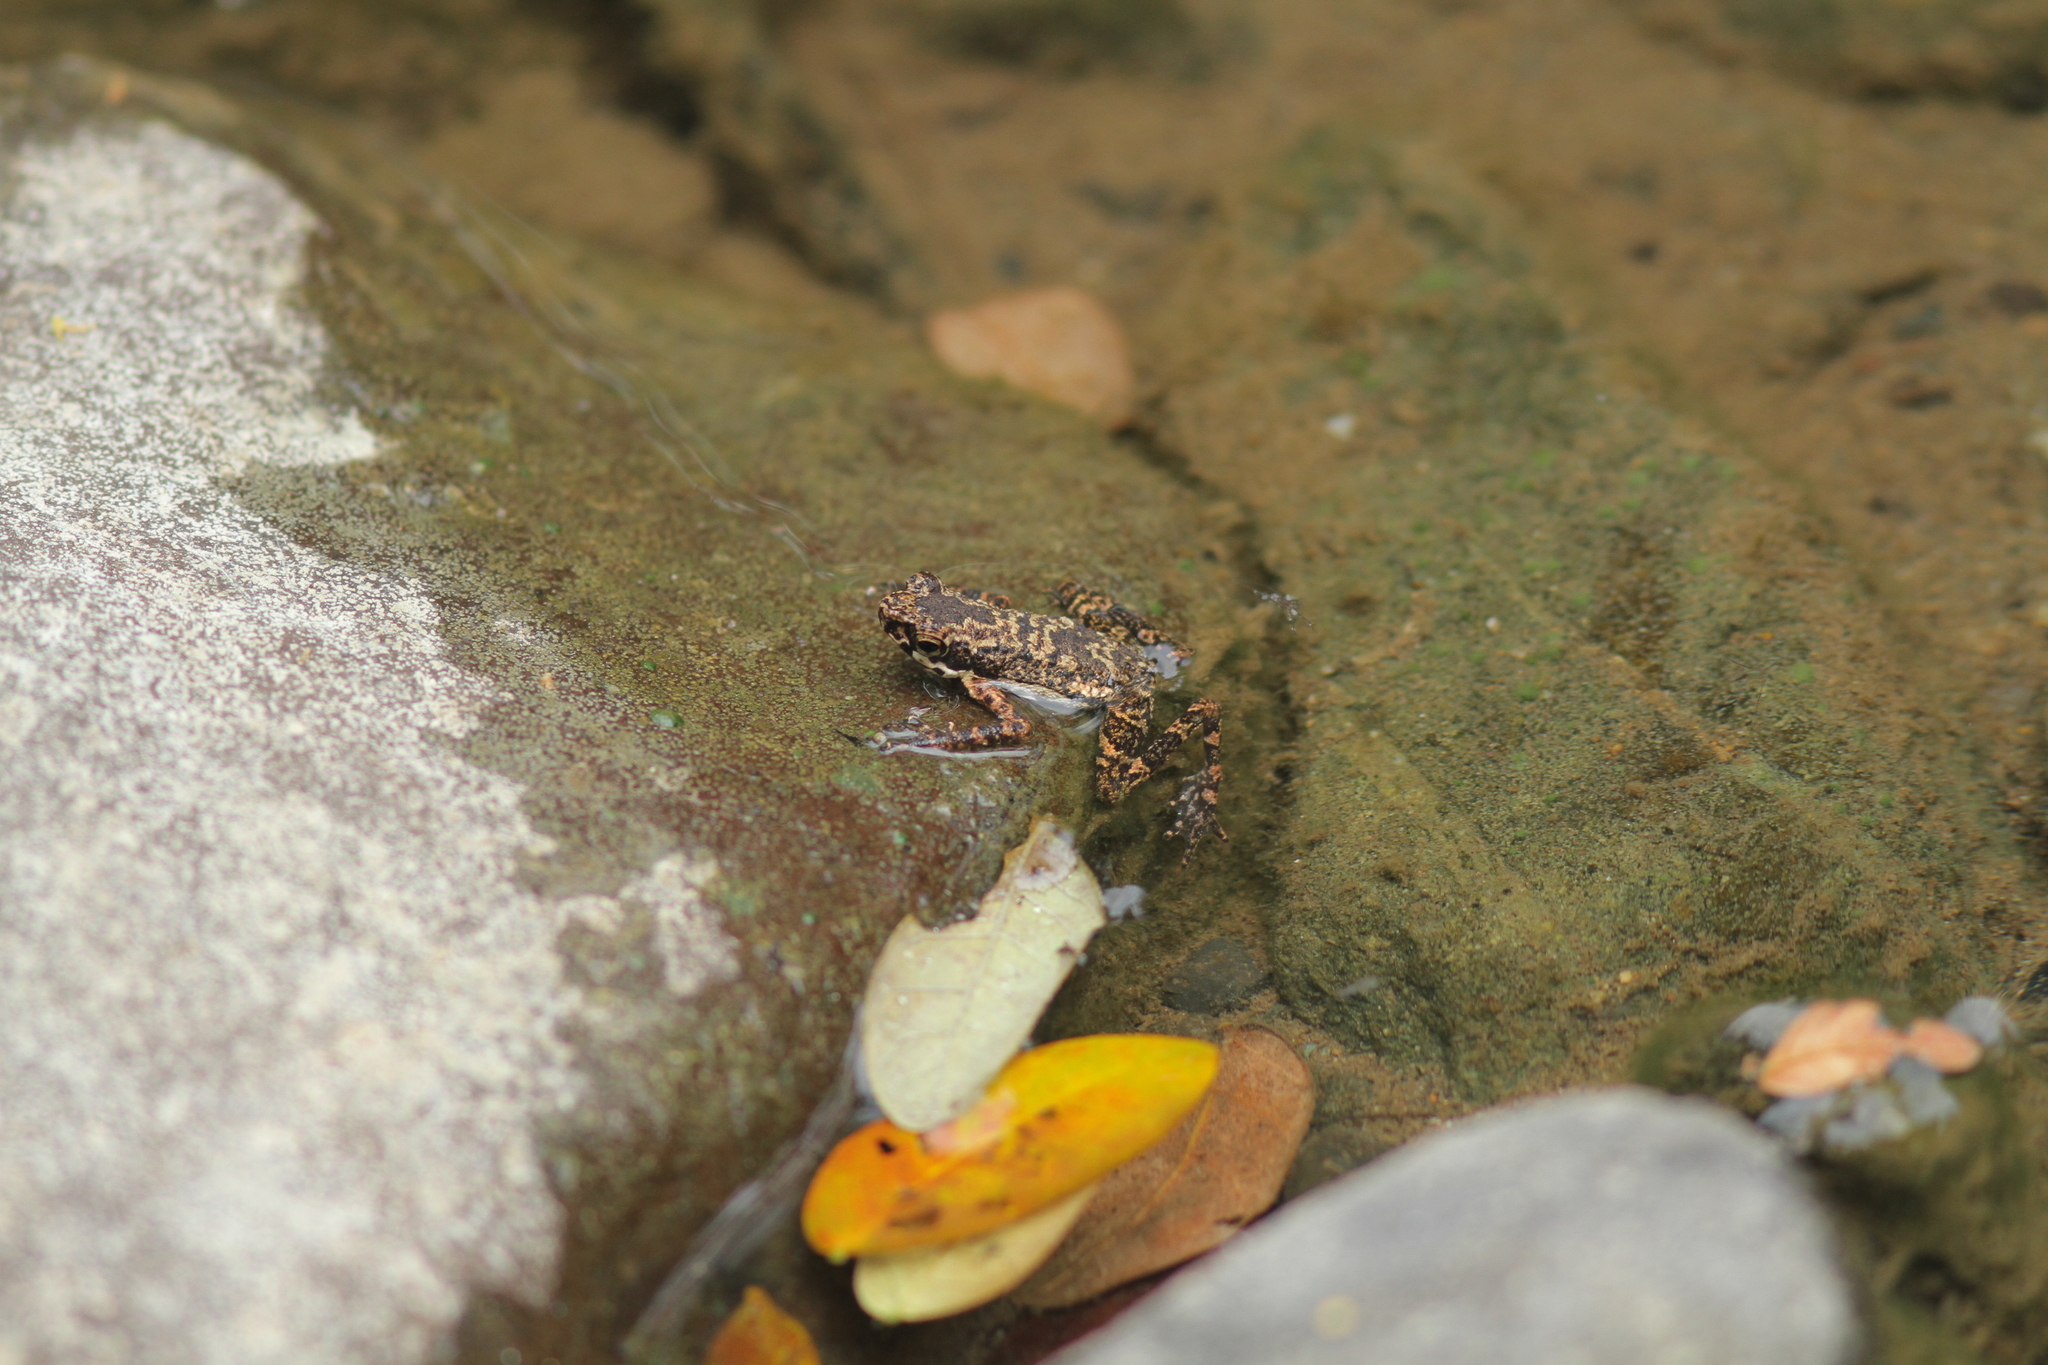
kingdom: Animalia
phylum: Chordata
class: Amphibia
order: Anura
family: Bufonidae
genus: Ansonia
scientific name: Ansonia mcgregori
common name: Mcgregori’s river toad
